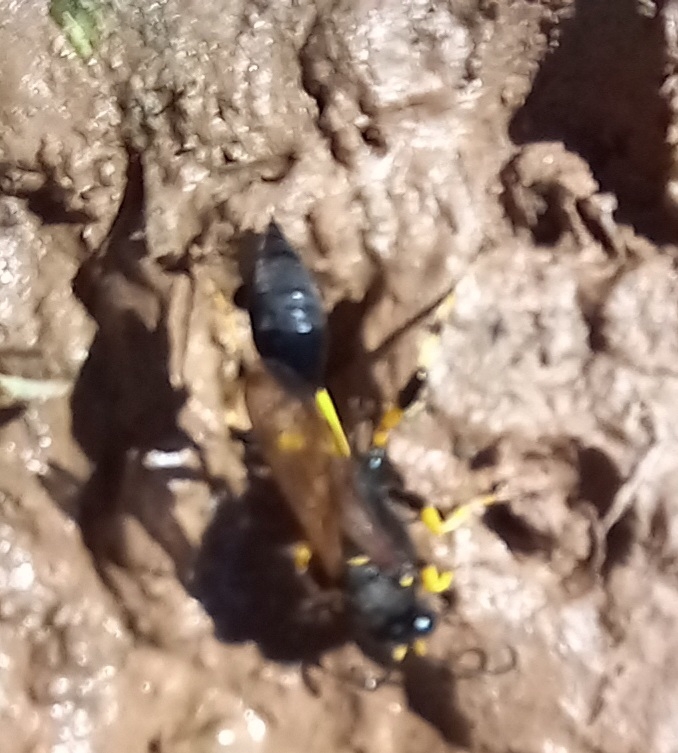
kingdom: Animalia
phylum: Arthropoda
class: Insecta
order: Hymenoptera
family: Sphecidae
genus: Sceliphron
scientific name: Sceliphron destillatorium
